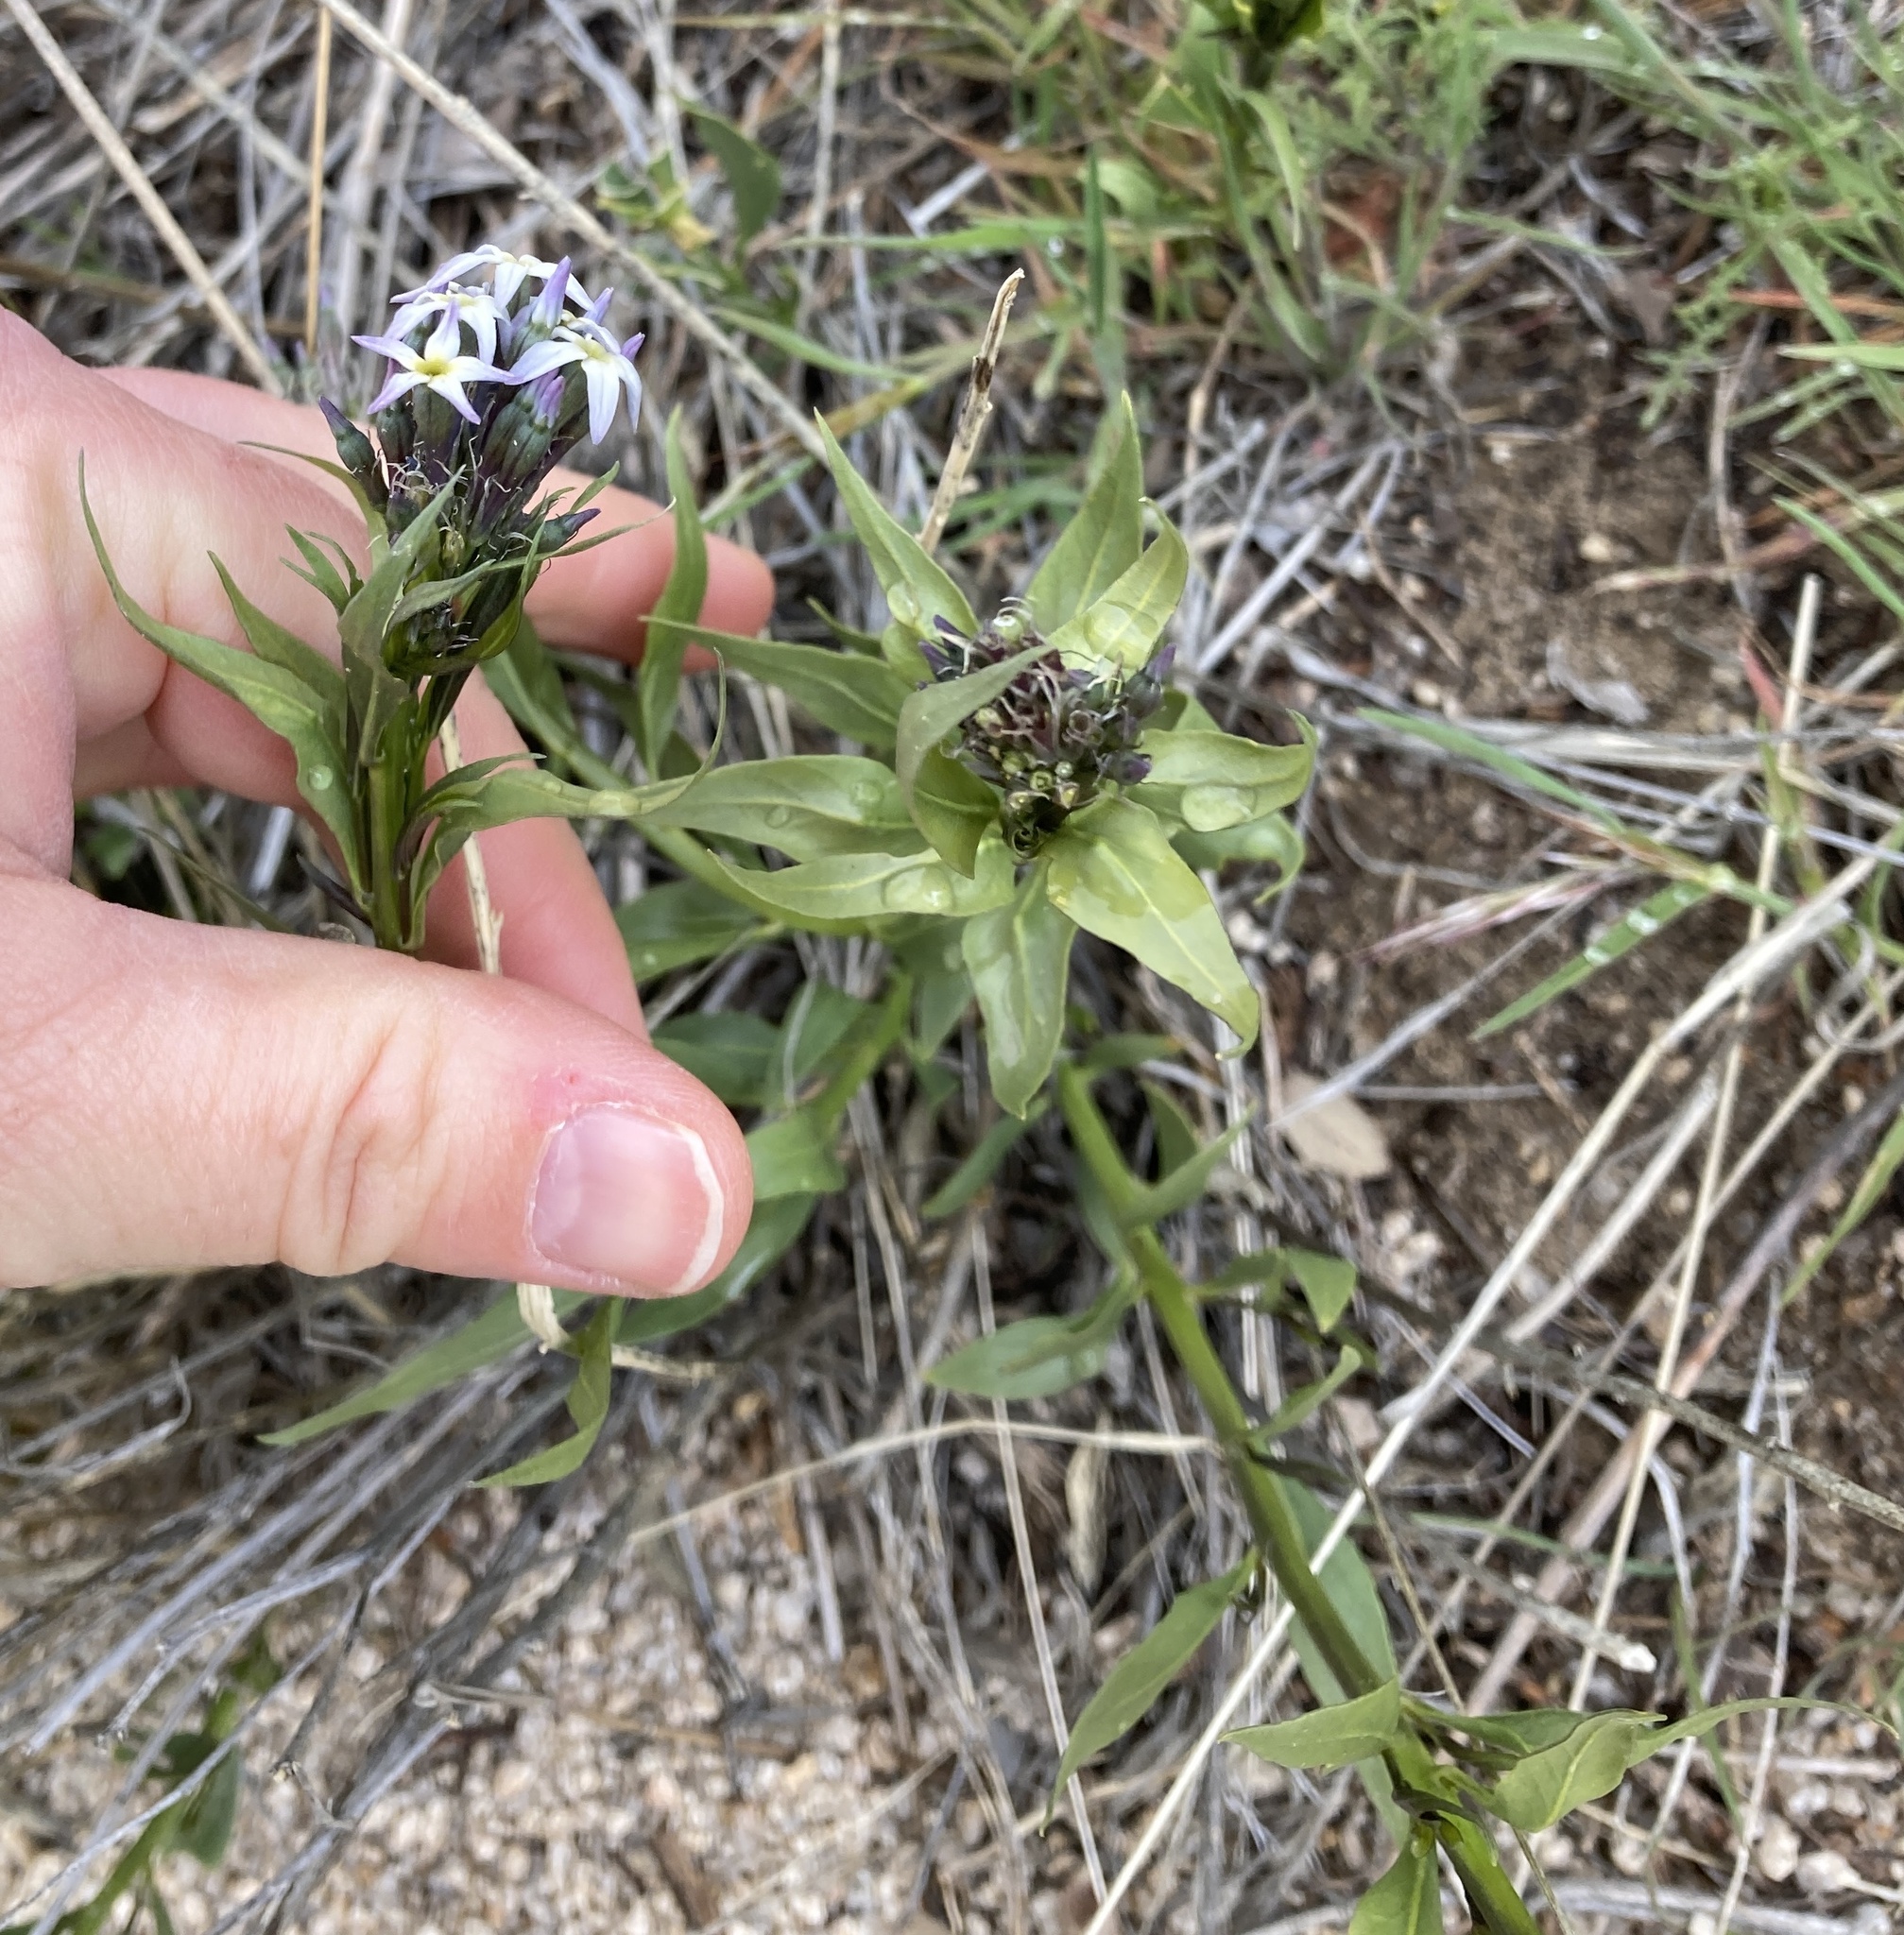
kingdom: Plantae
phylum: Tracheophyta
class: Magnoliopsida
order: Gentianales
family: Apocynaceae
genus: Amsonia
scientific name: Amsonia tomentosa
